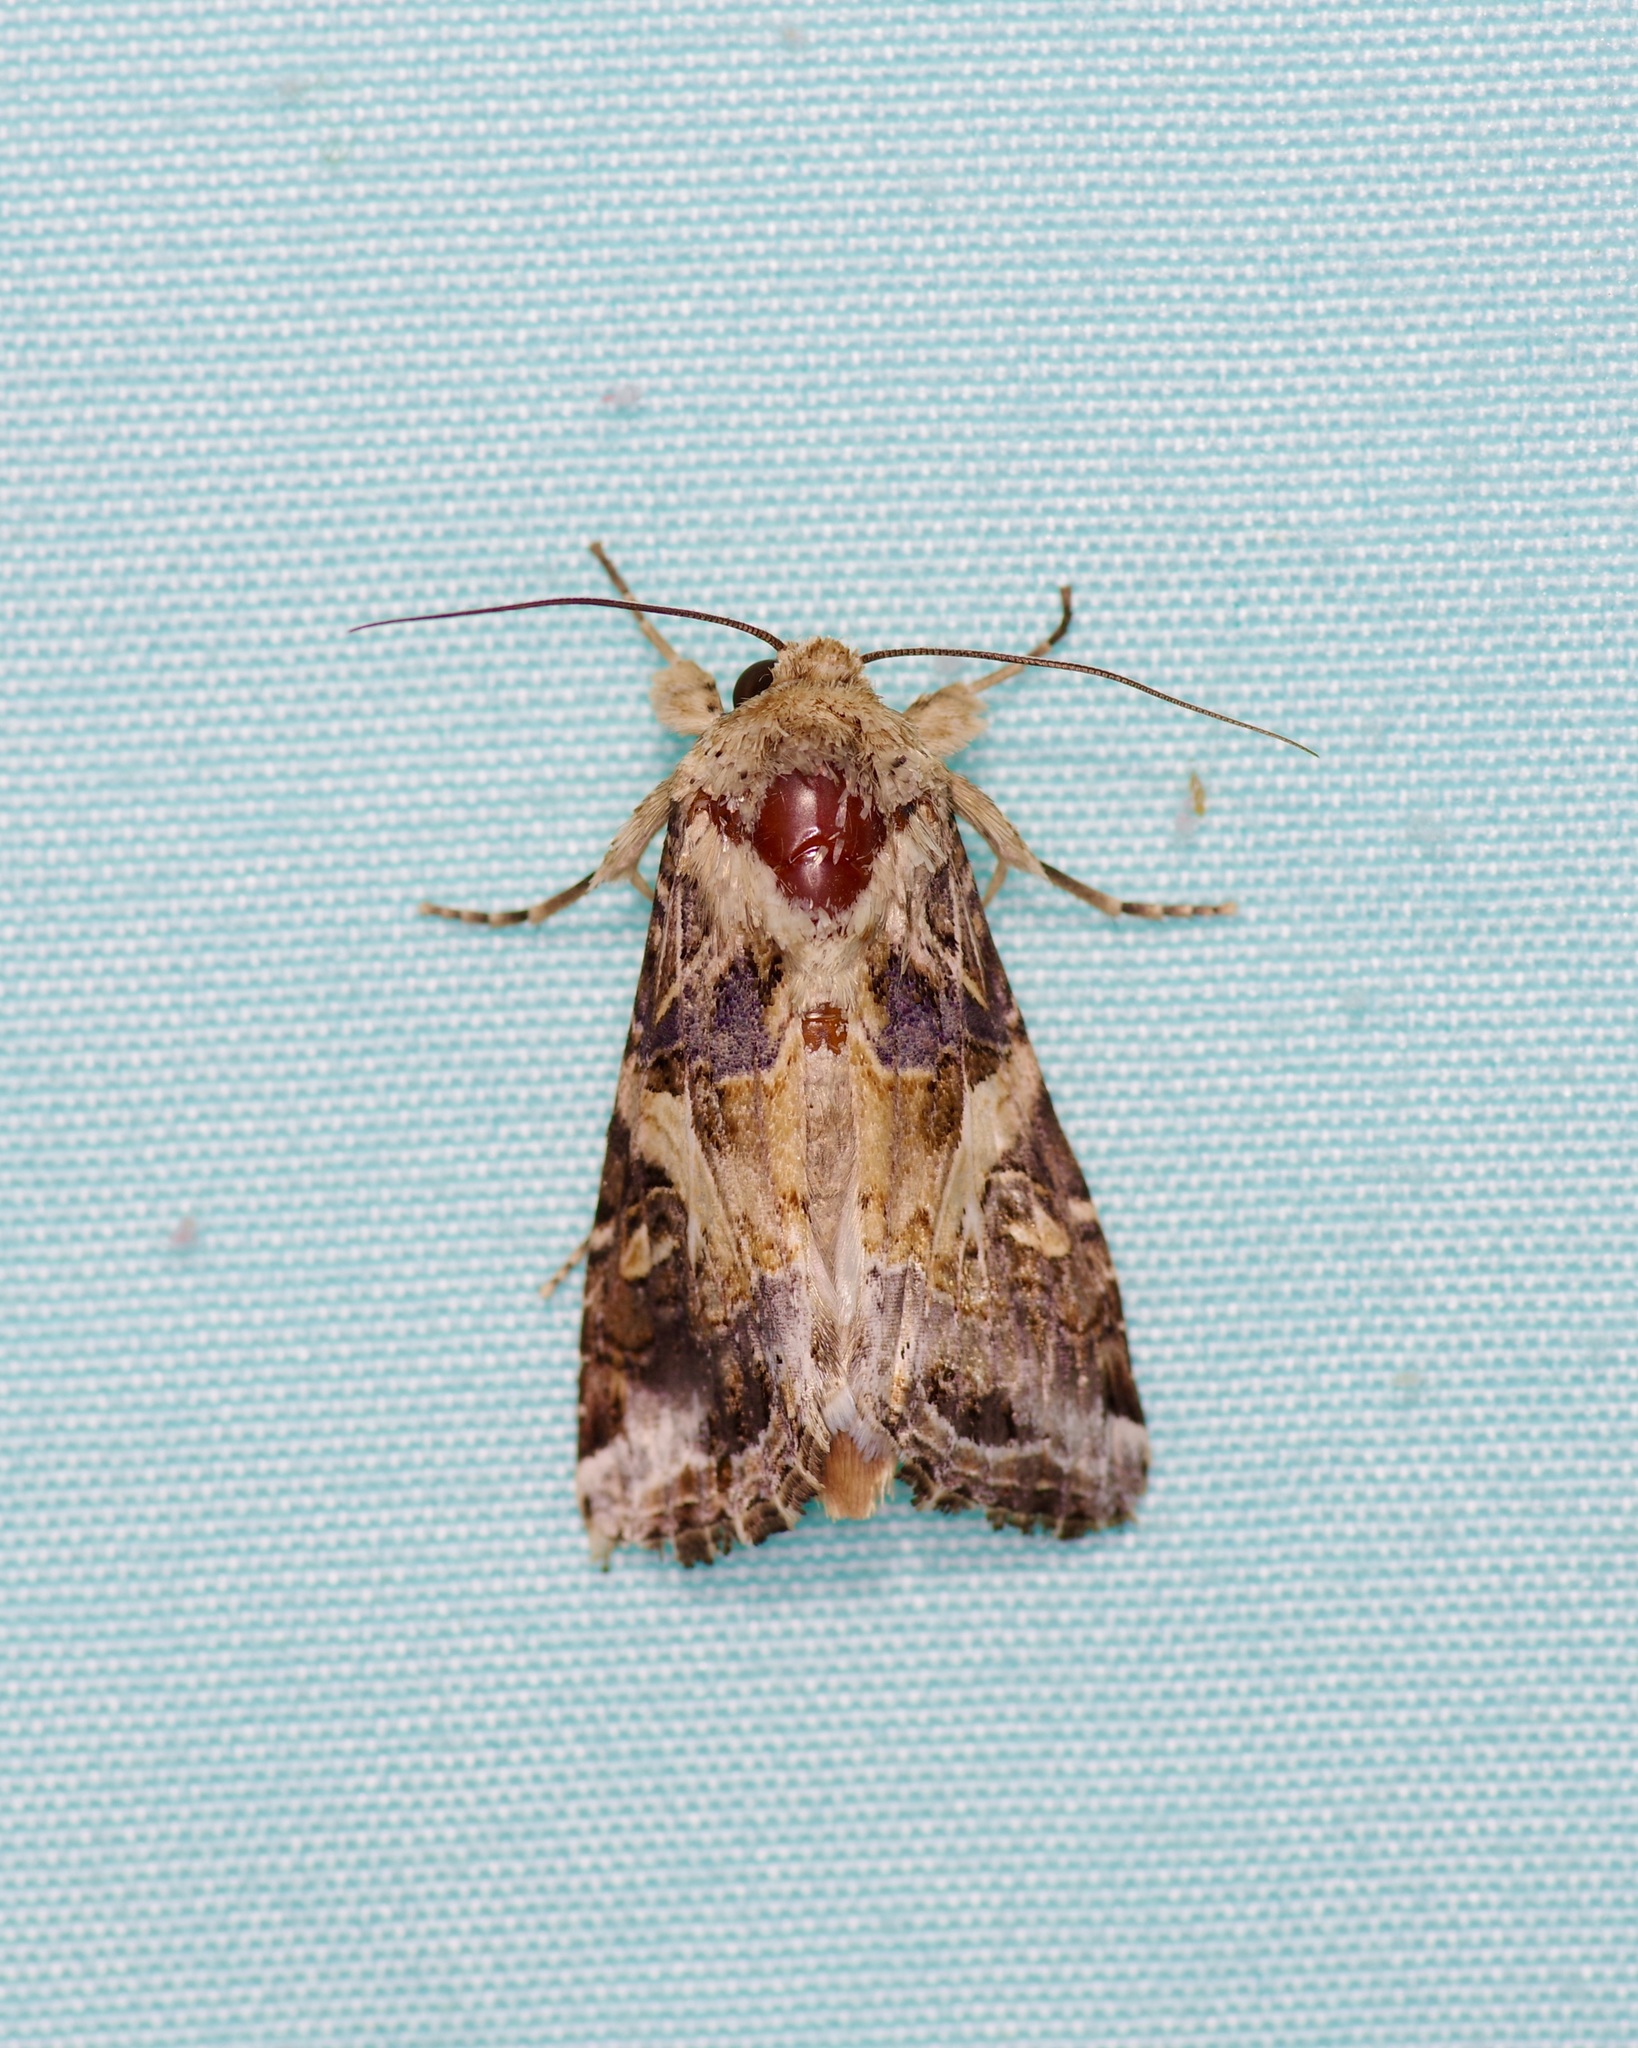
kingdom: Animalia
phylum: Arthropoda
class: Insecta
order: Lepidoptera
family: Noctuidae
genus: Spodoptera
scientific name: Spodoptera ornithogalli
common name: Yellow-striped armyworm
